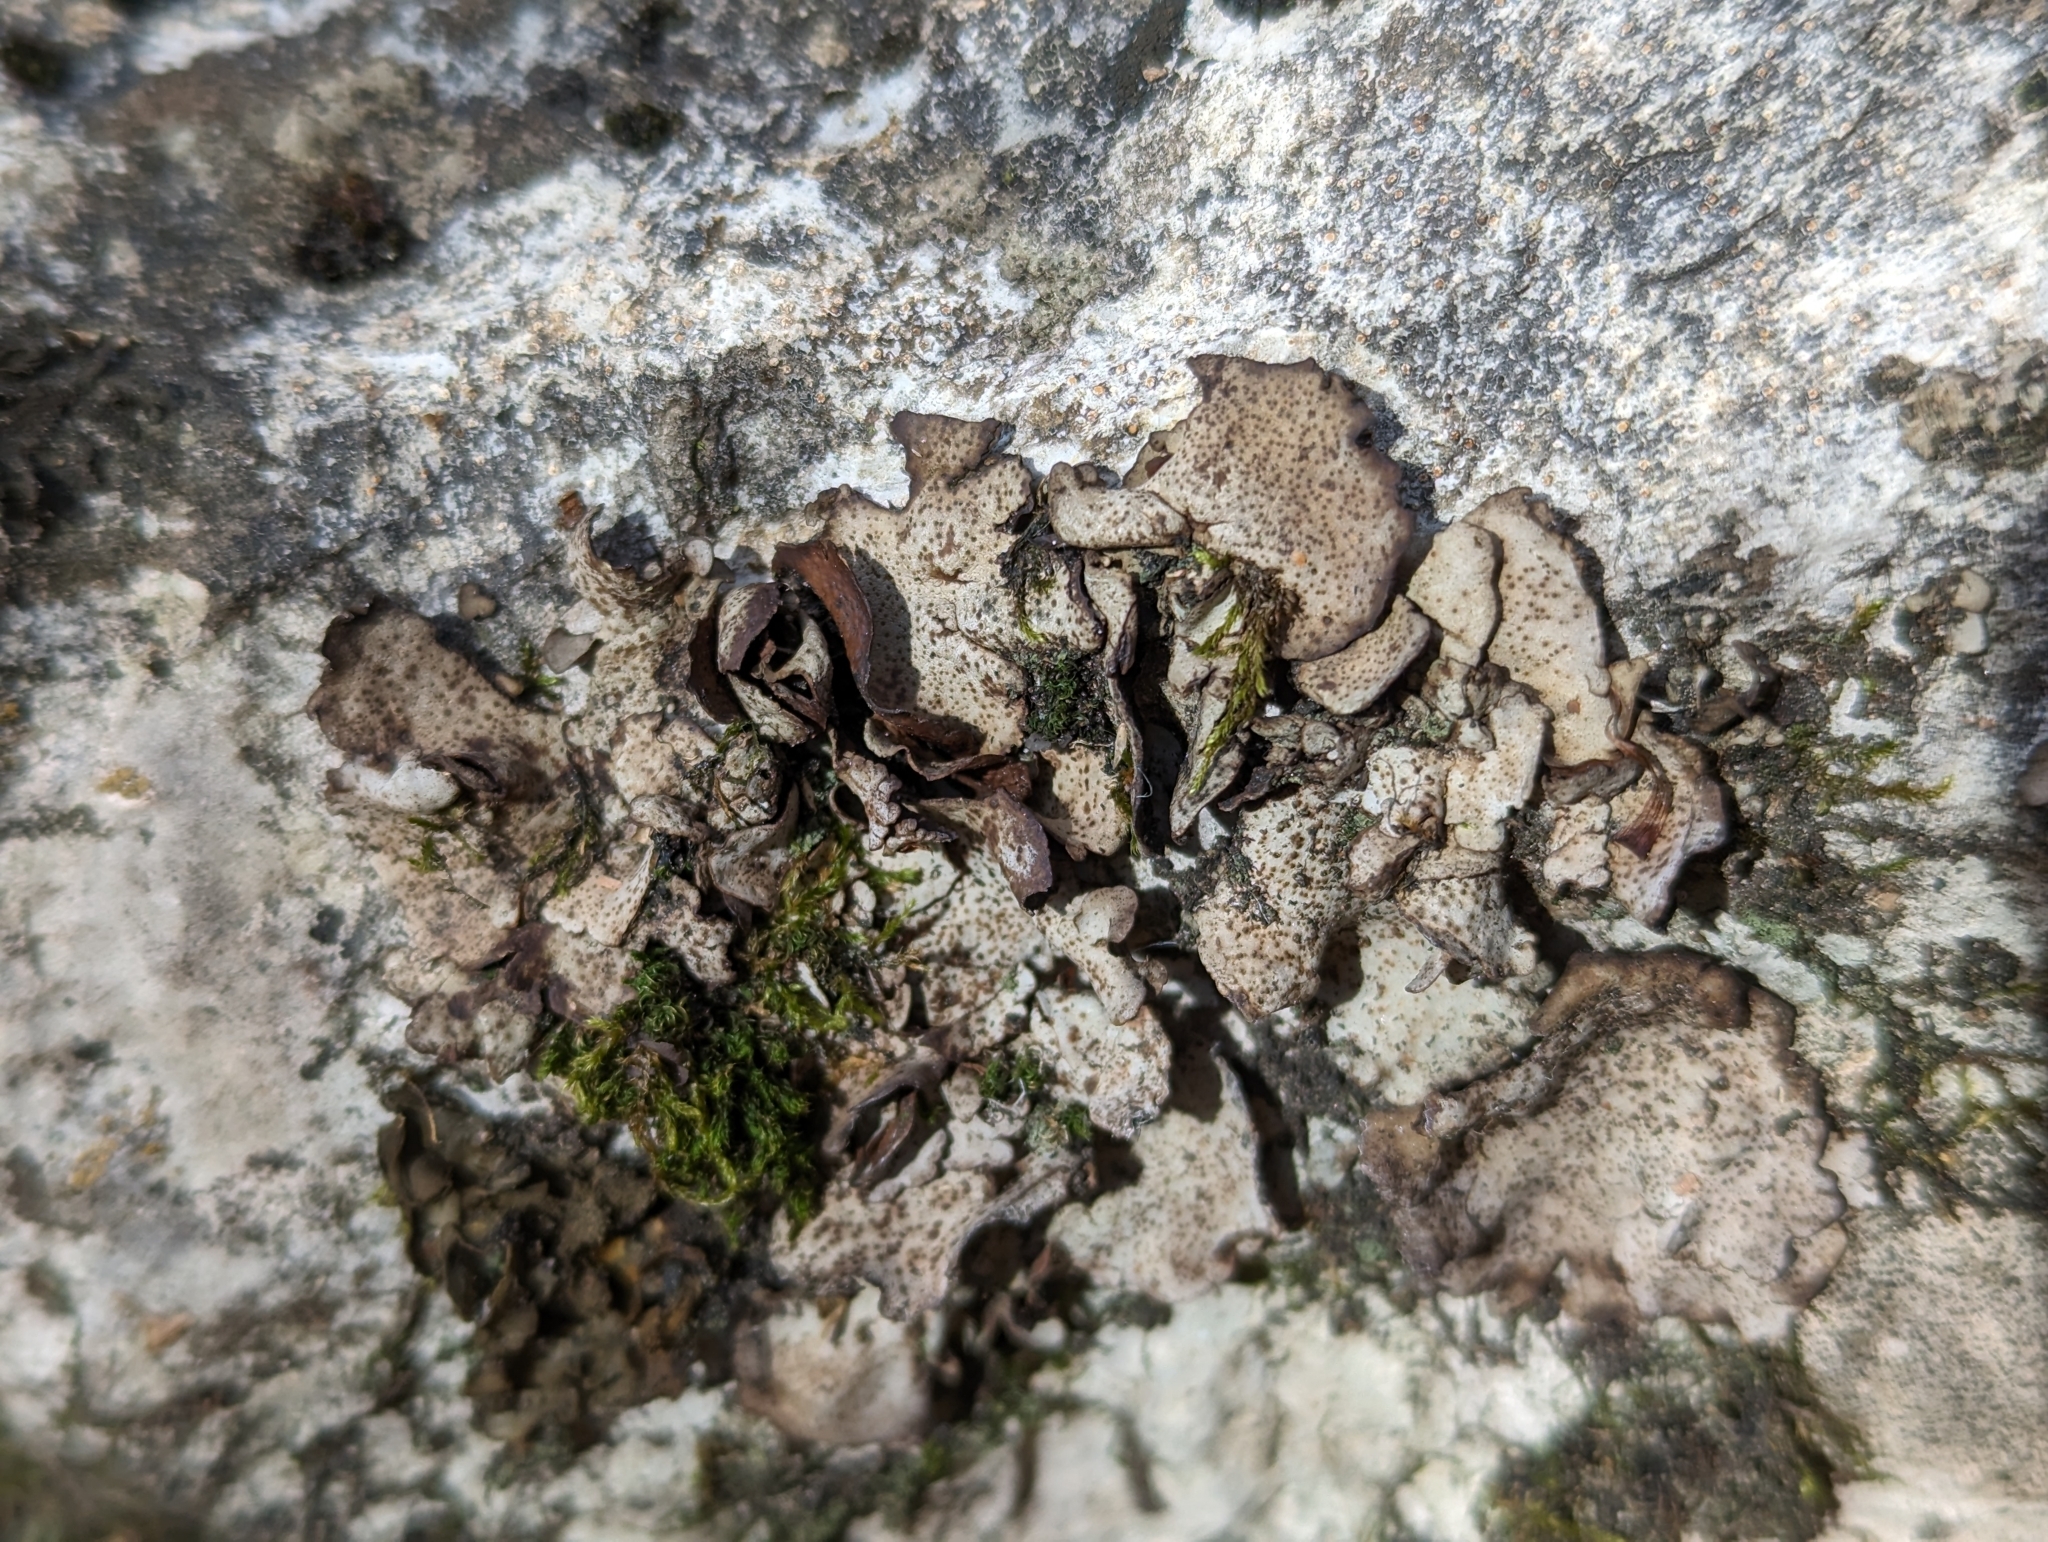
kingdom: Fungi
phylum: Ascomycota
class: Eurotiomycetes
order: Verrucariales
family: Verrucariaceae
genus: Dermatocarpon
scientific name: Dermatocarpon miniatum
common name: Leather lichen
